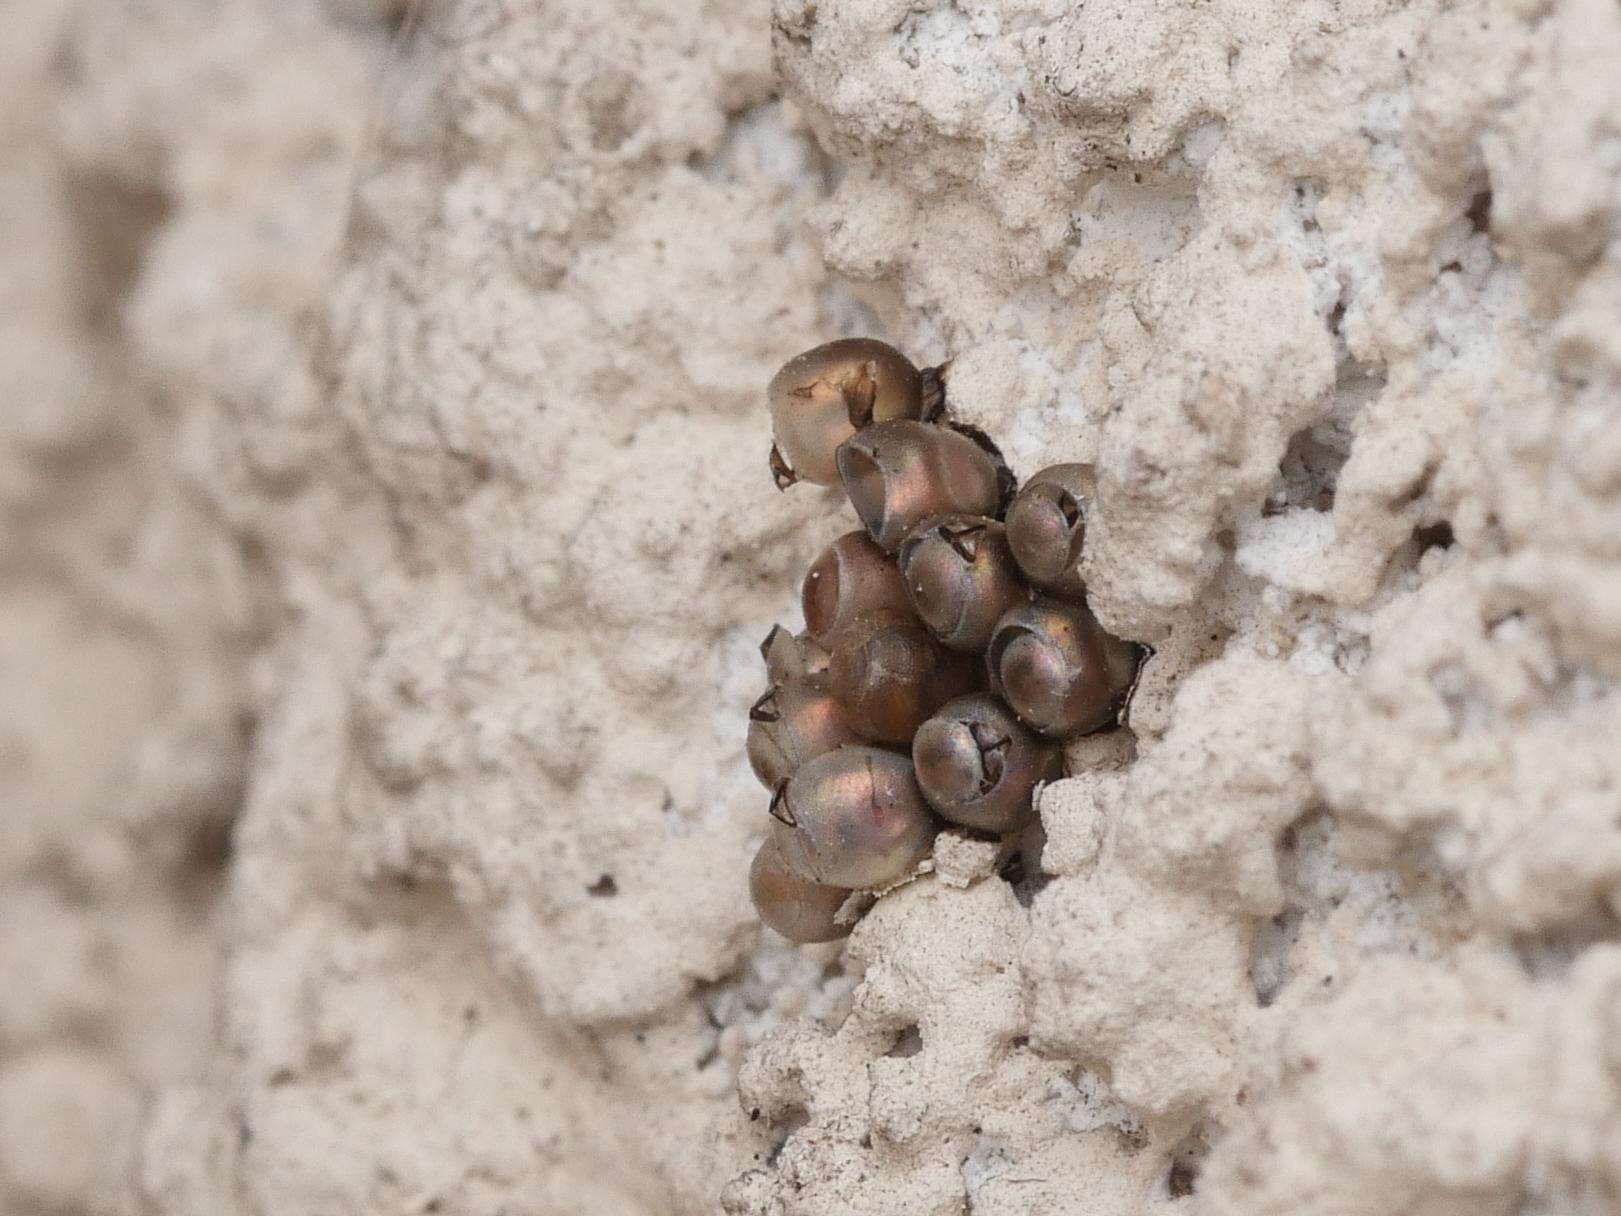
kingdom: Animalia
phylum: Arthropoda
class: Insecta
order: Hemiptera
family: Pentatomidae
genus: Rhaphigaster
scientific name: Rhaphigaster nebulosa
